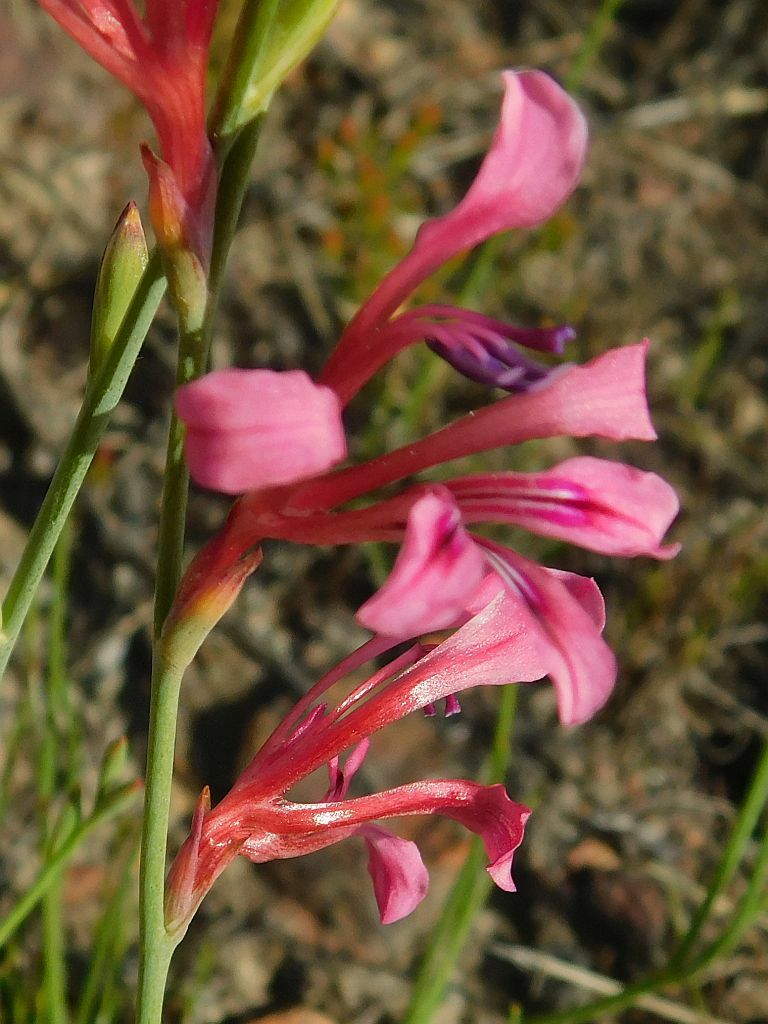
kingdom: Plantae
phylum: Tracheophyta
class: Liliopsida
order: Asparagales
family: Iridaceae
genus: Tritoniopsis
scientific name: Tritoniopsis ramosa
